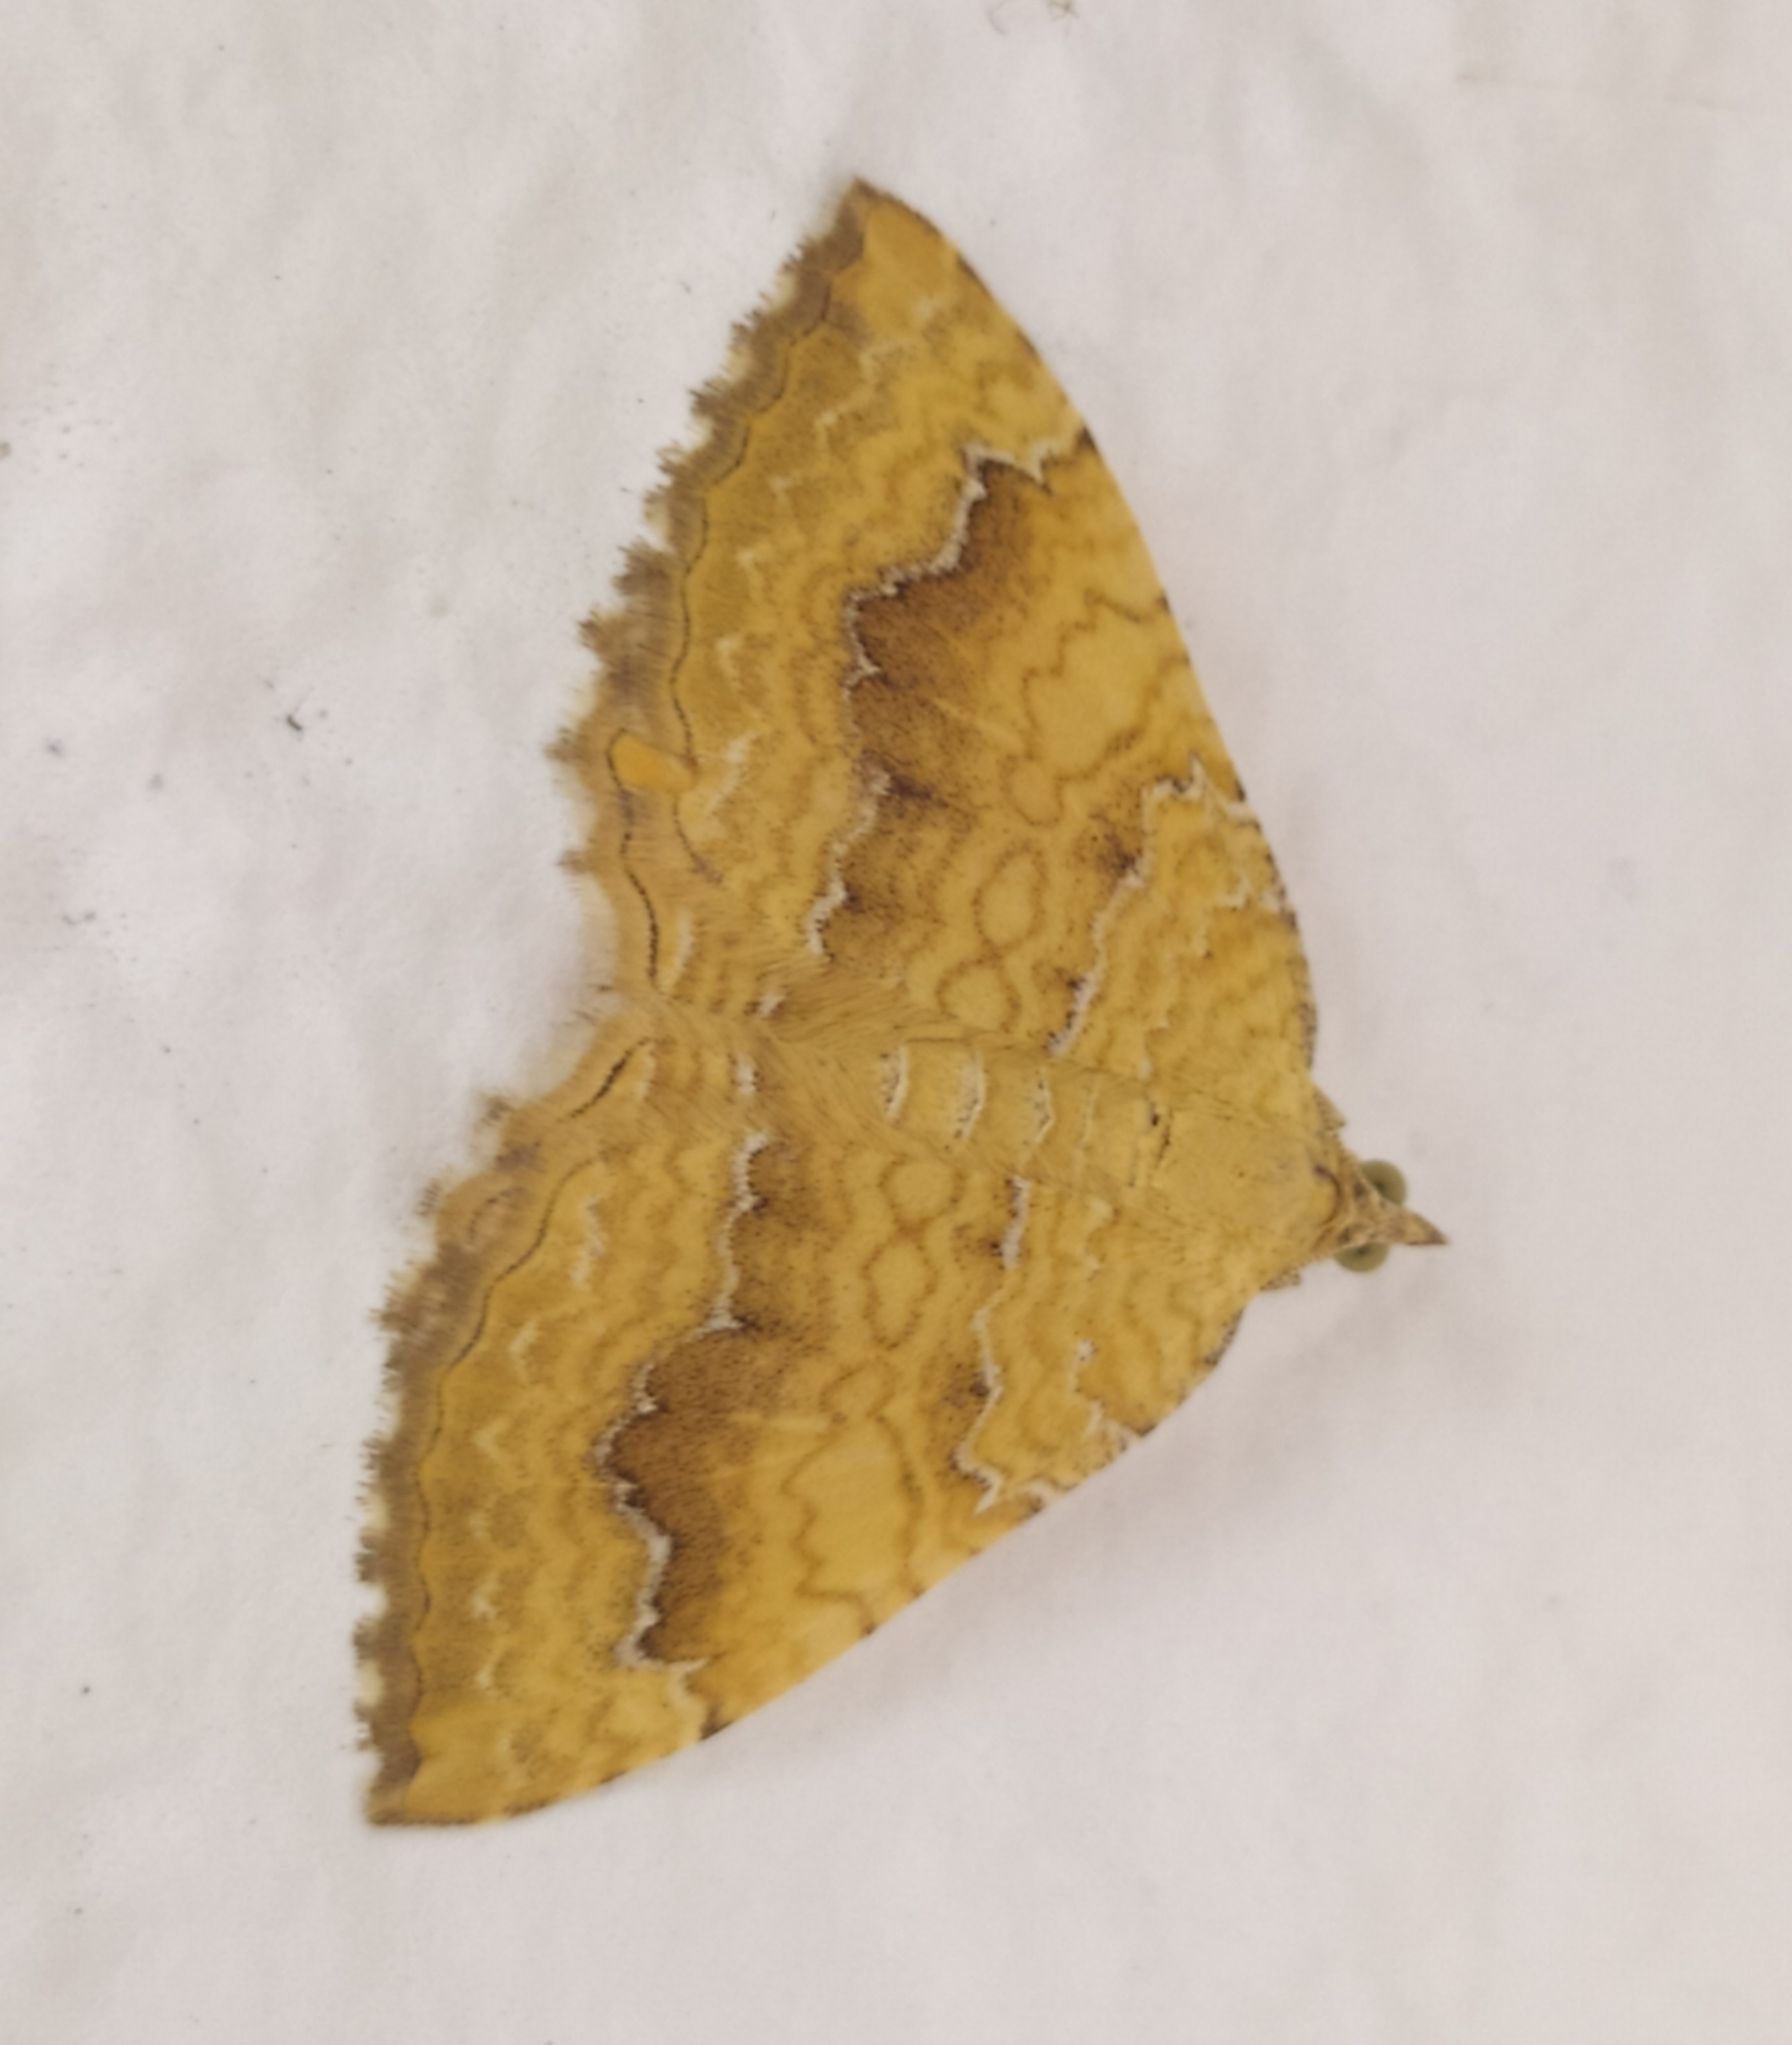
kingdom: Animalia
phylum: Arthropoda
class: Insecta
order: Lepidoptera
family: Geometridae
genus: Camptogramma
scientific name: Camptogramma bilineata
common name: Yellow shell
